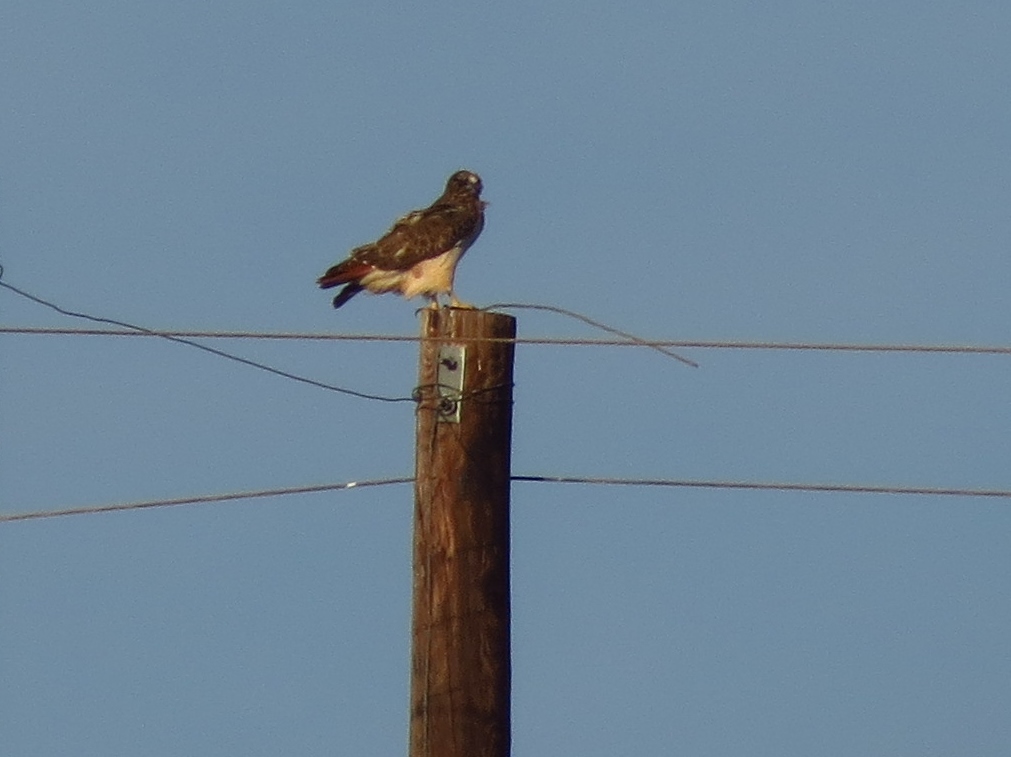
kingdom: Animalia
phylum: Chordata
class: Aves
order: Accipitriformes
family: Accipitridae
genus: Buteo
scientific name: Buteo jamaicensis
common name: Red-tailed hawk
